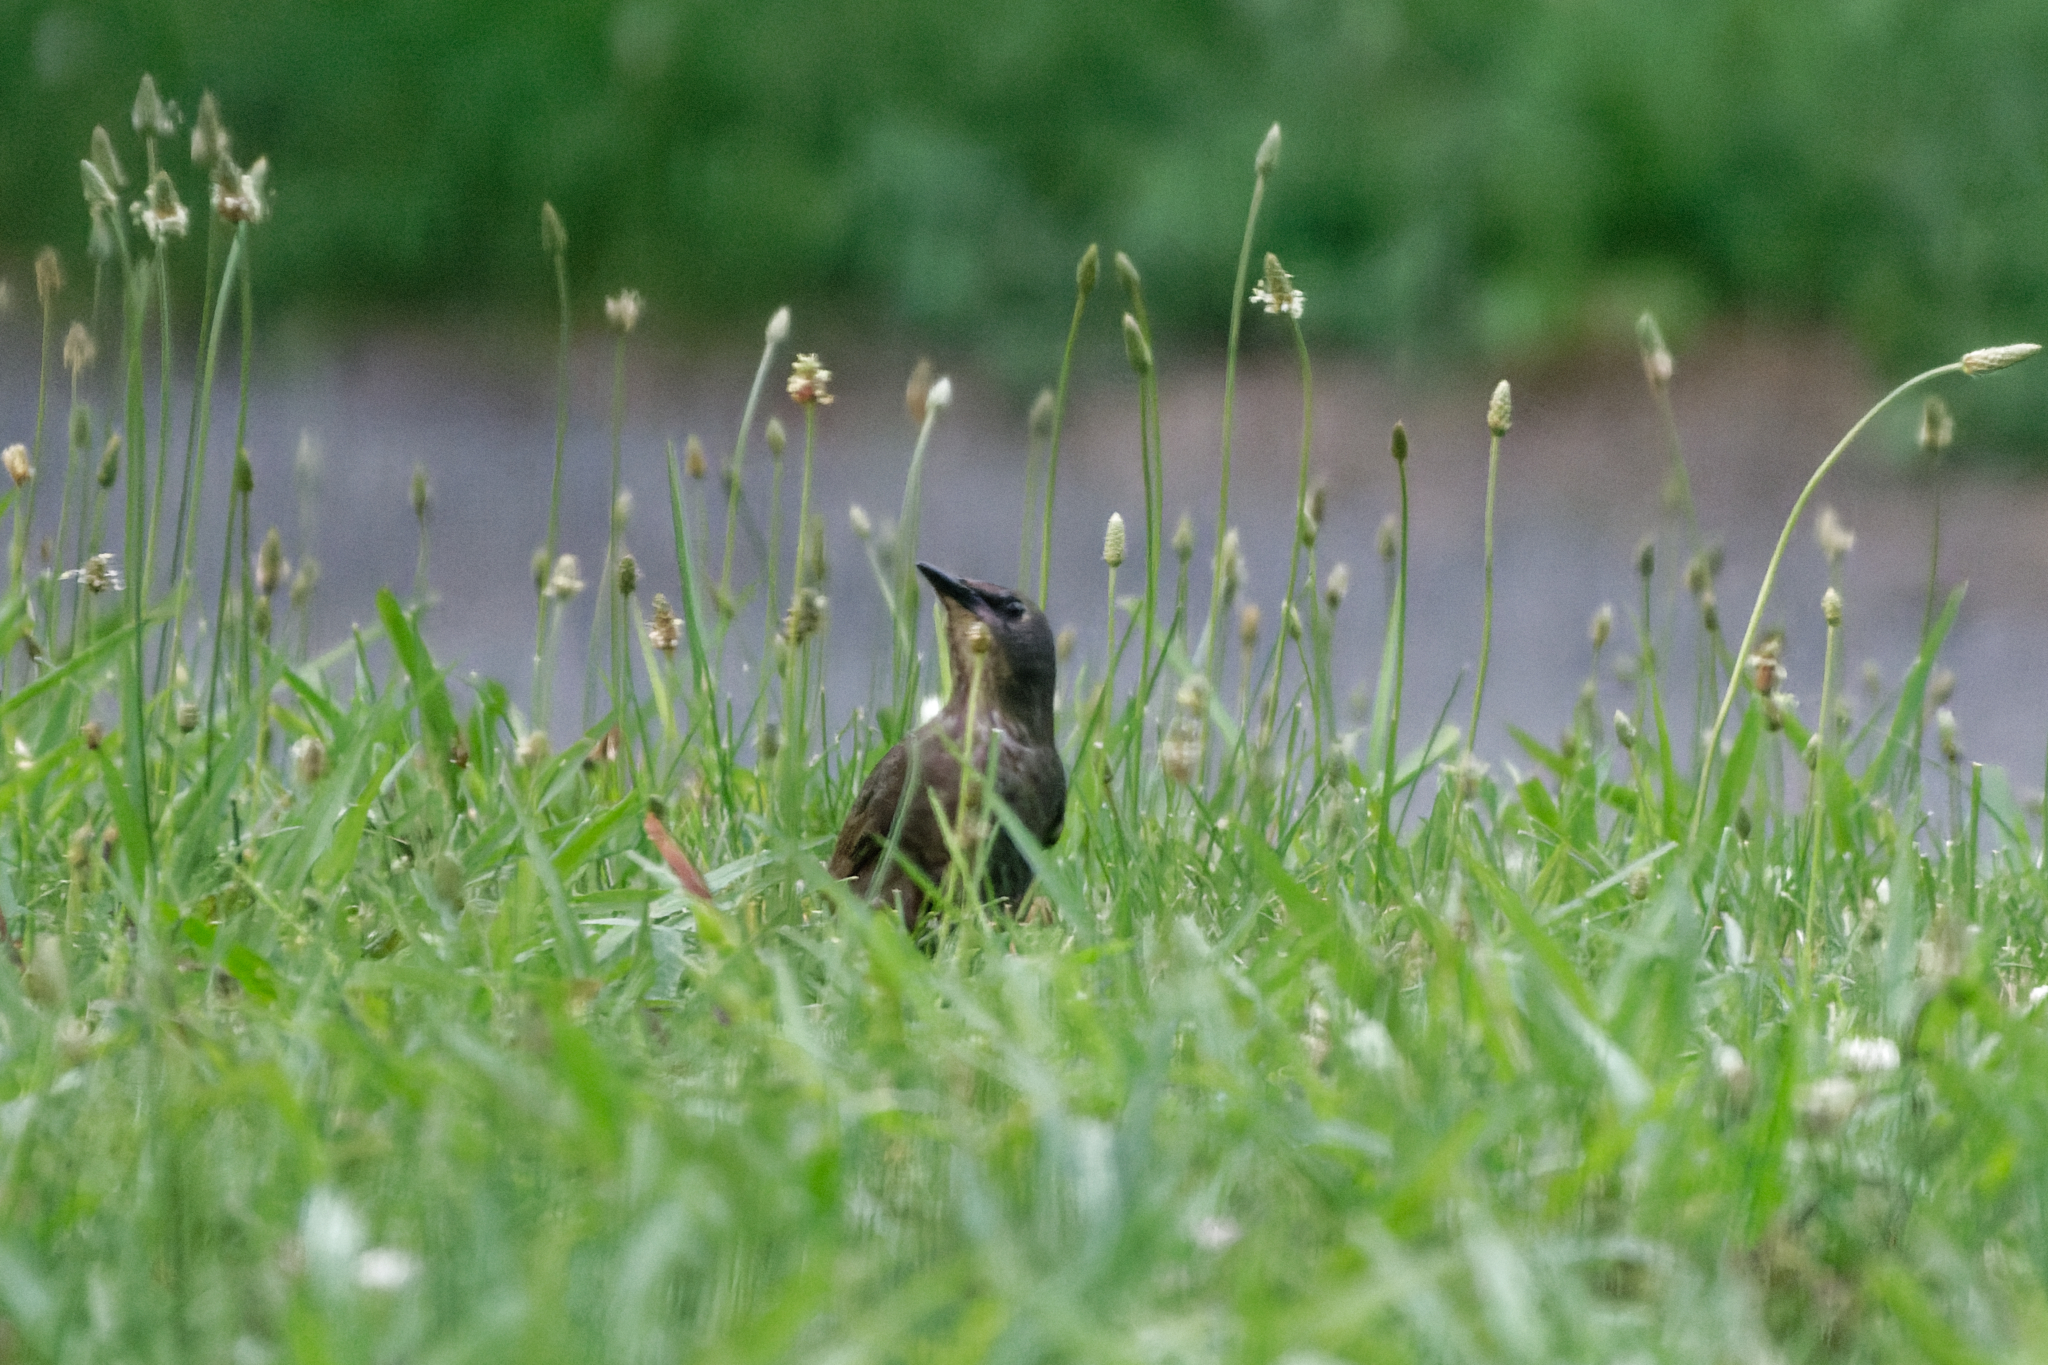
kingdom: Animalia
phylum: Chordata
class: Aves
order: Passeriformes
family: Sturnidae
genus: Sturnus
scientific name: Sturnus vulgaris
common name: Common starling
